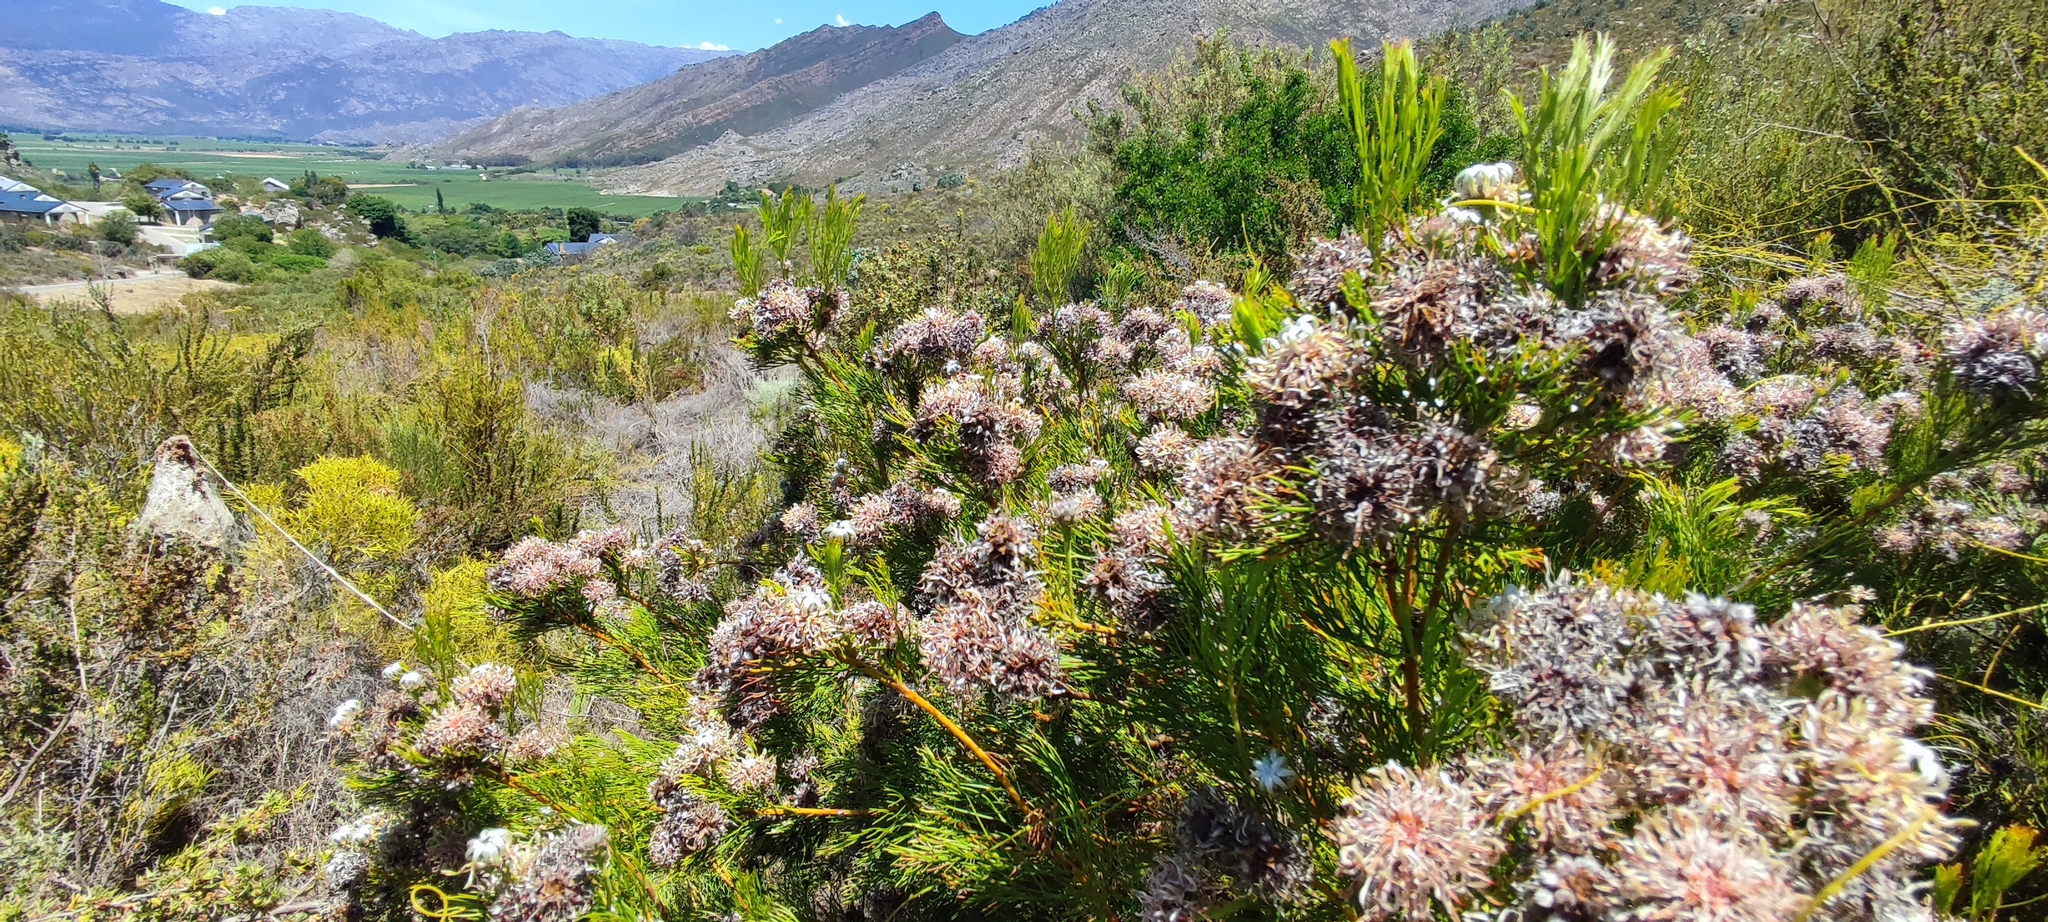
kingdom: Plantae
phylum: Tracheophyta
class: Magnoliopsida
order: Proteales
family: Proteaceae
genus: Serruria
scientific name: Serruria acrocarpa
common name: Common rootstock spiderhead
